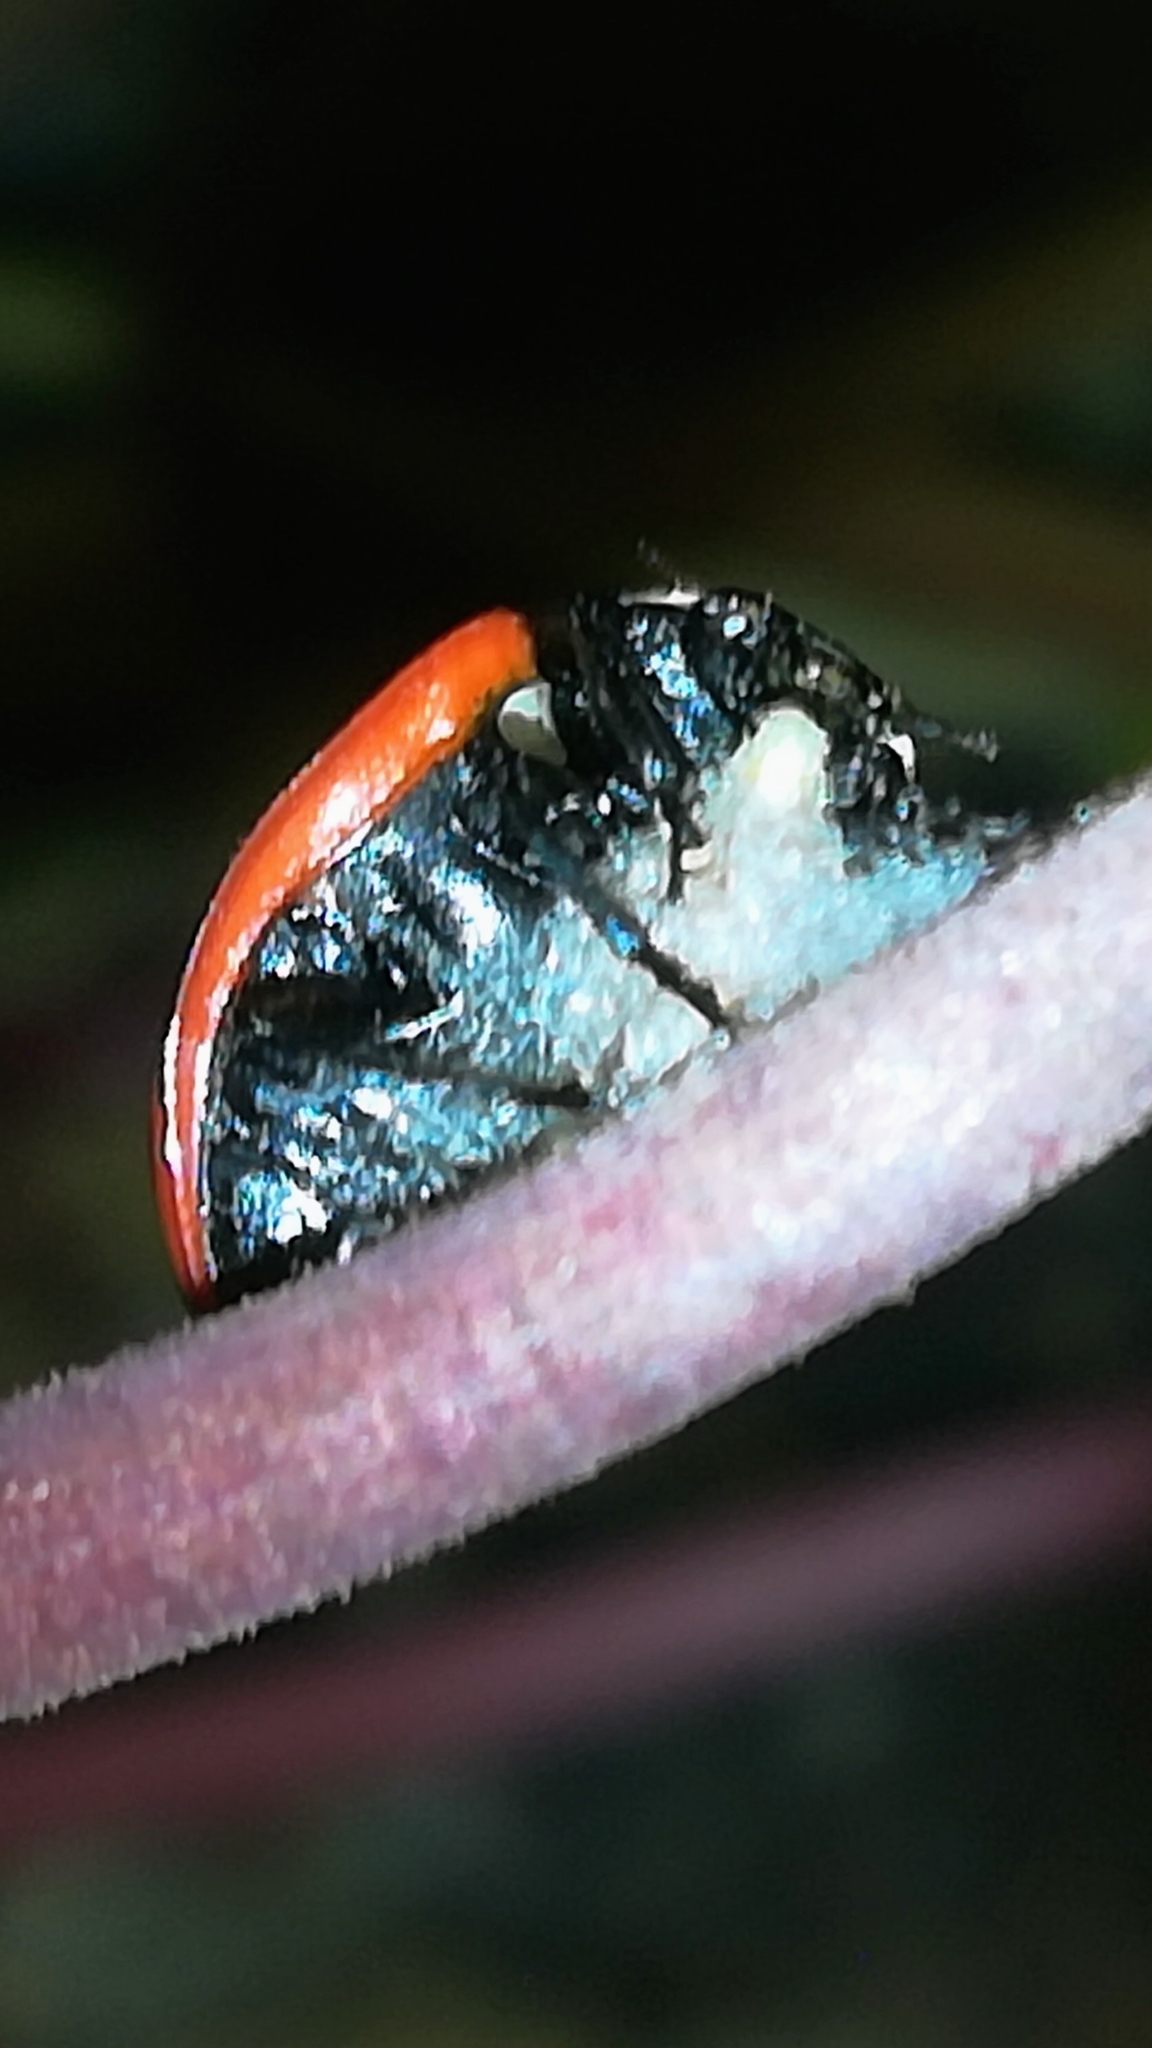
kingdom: Viruses
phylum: Pisuviricota
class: Pisoniviricetes
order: Picornavirales
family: Iflaviridae
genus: Iflavirus
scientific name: Iflavirus dinococcinellae
